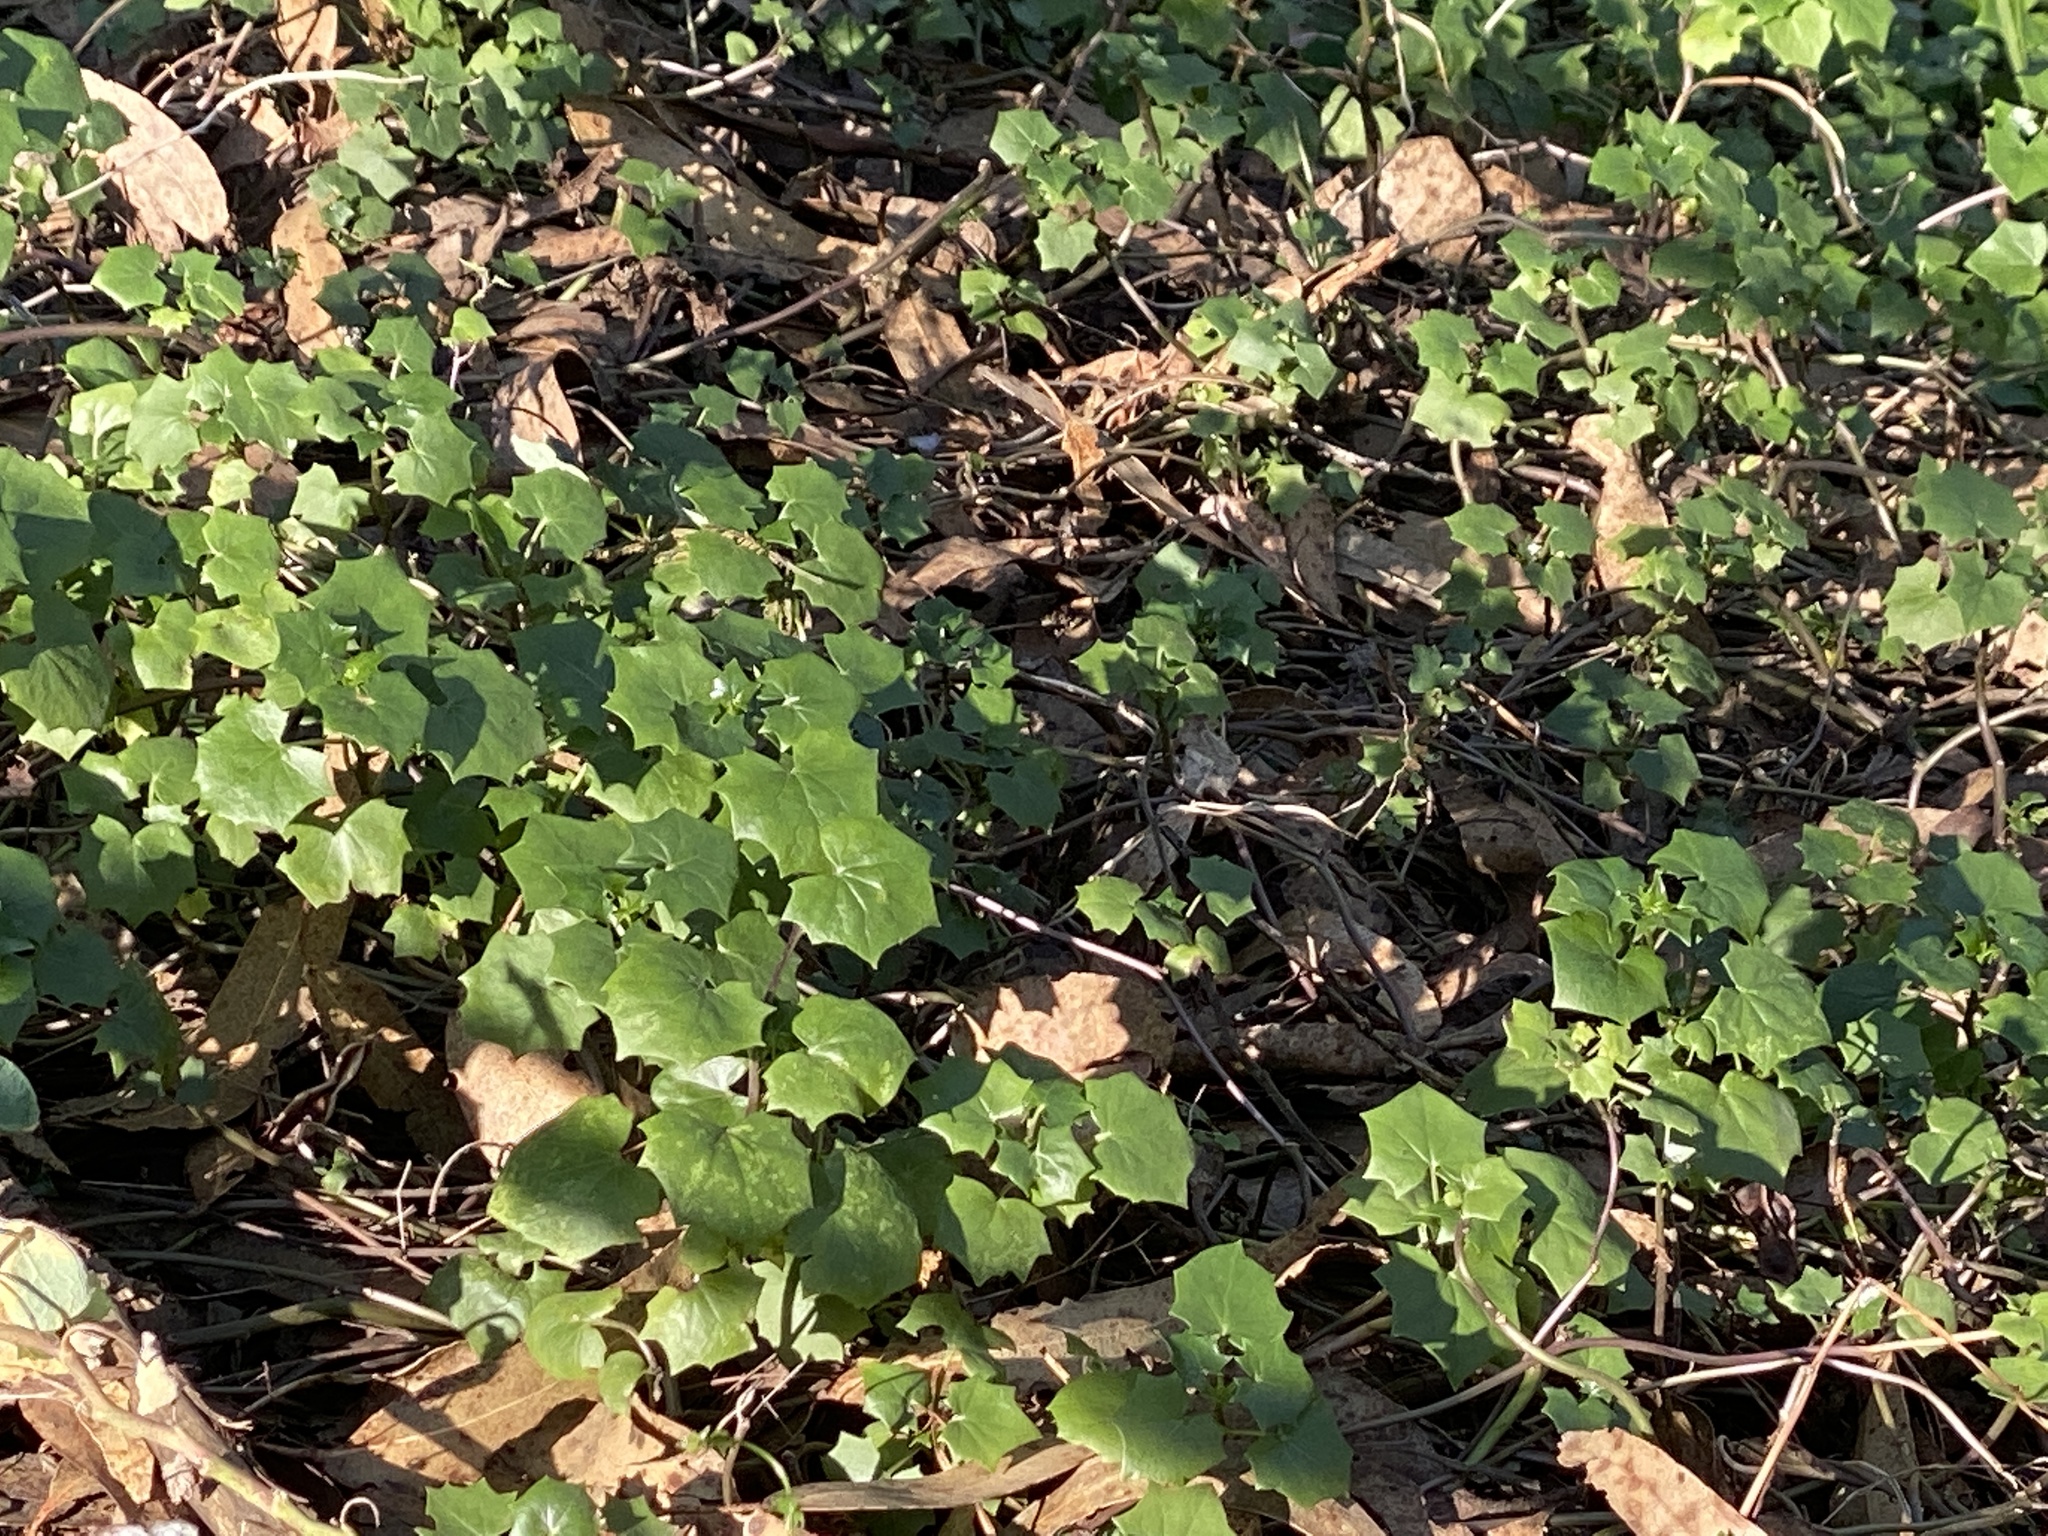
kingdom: Plantae
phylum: Tracheophyta
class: Magnoliopsida
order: Asterales
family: Asteraceae
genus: Delairea
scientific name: Delairea odorata
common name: Cape-ivy
